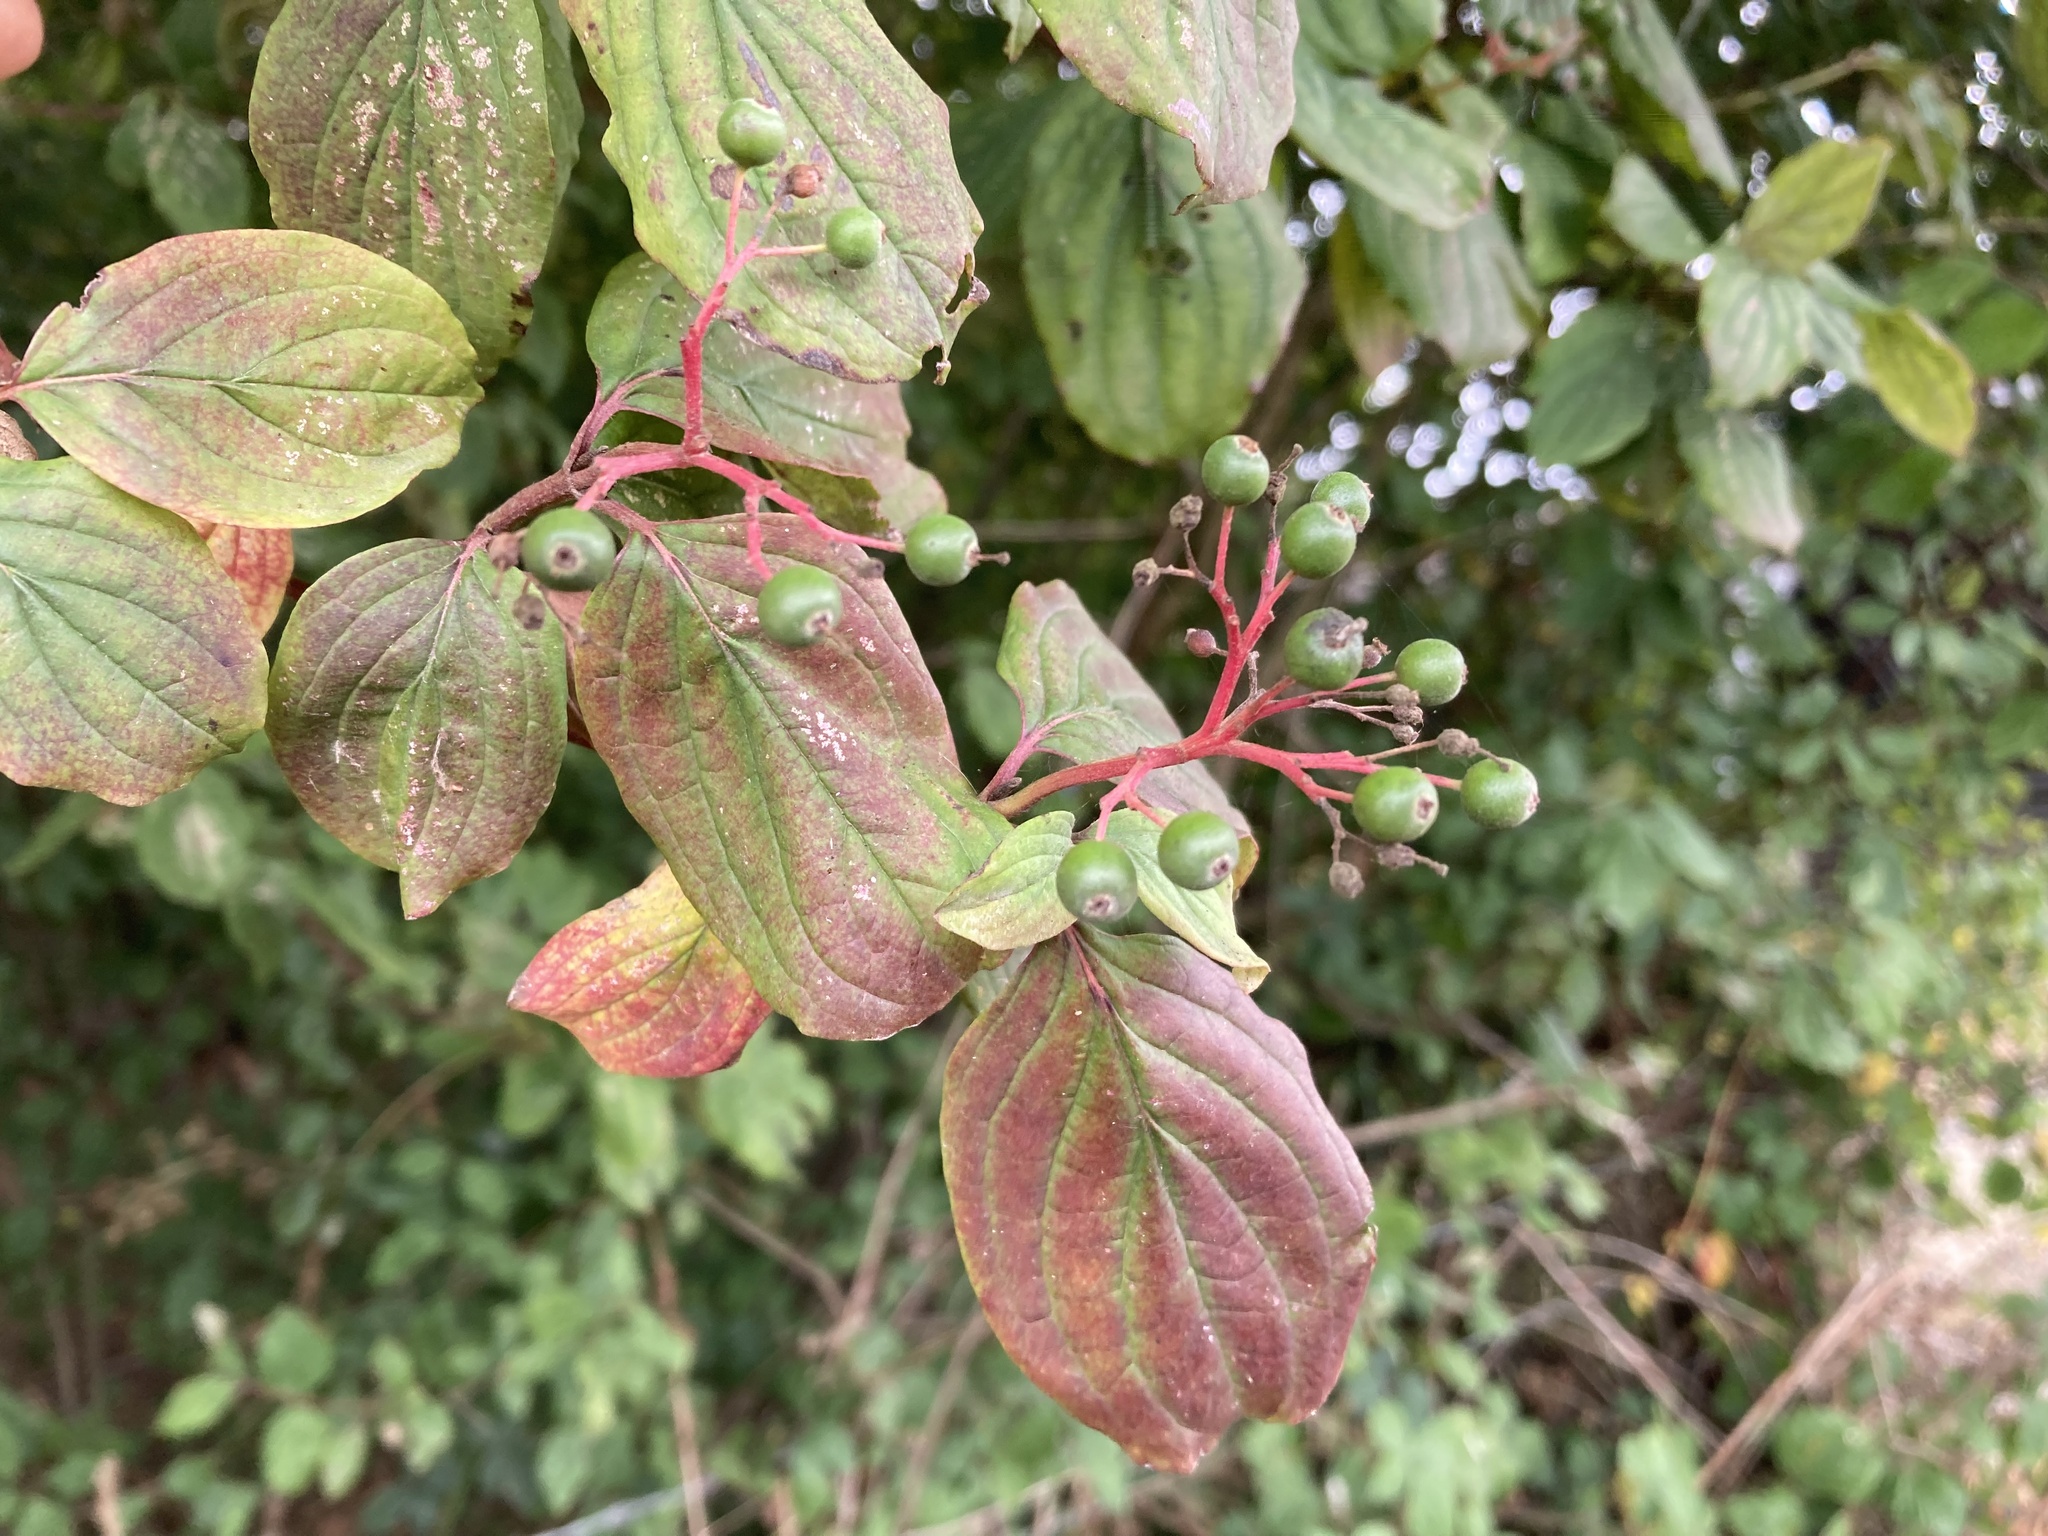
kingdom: Plantae
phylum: Tracheophyta
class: Magnoliopsida
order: Cornales
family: Cornaceae
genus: Cornus
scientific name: Cornus sanguinea
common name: Dogwood
